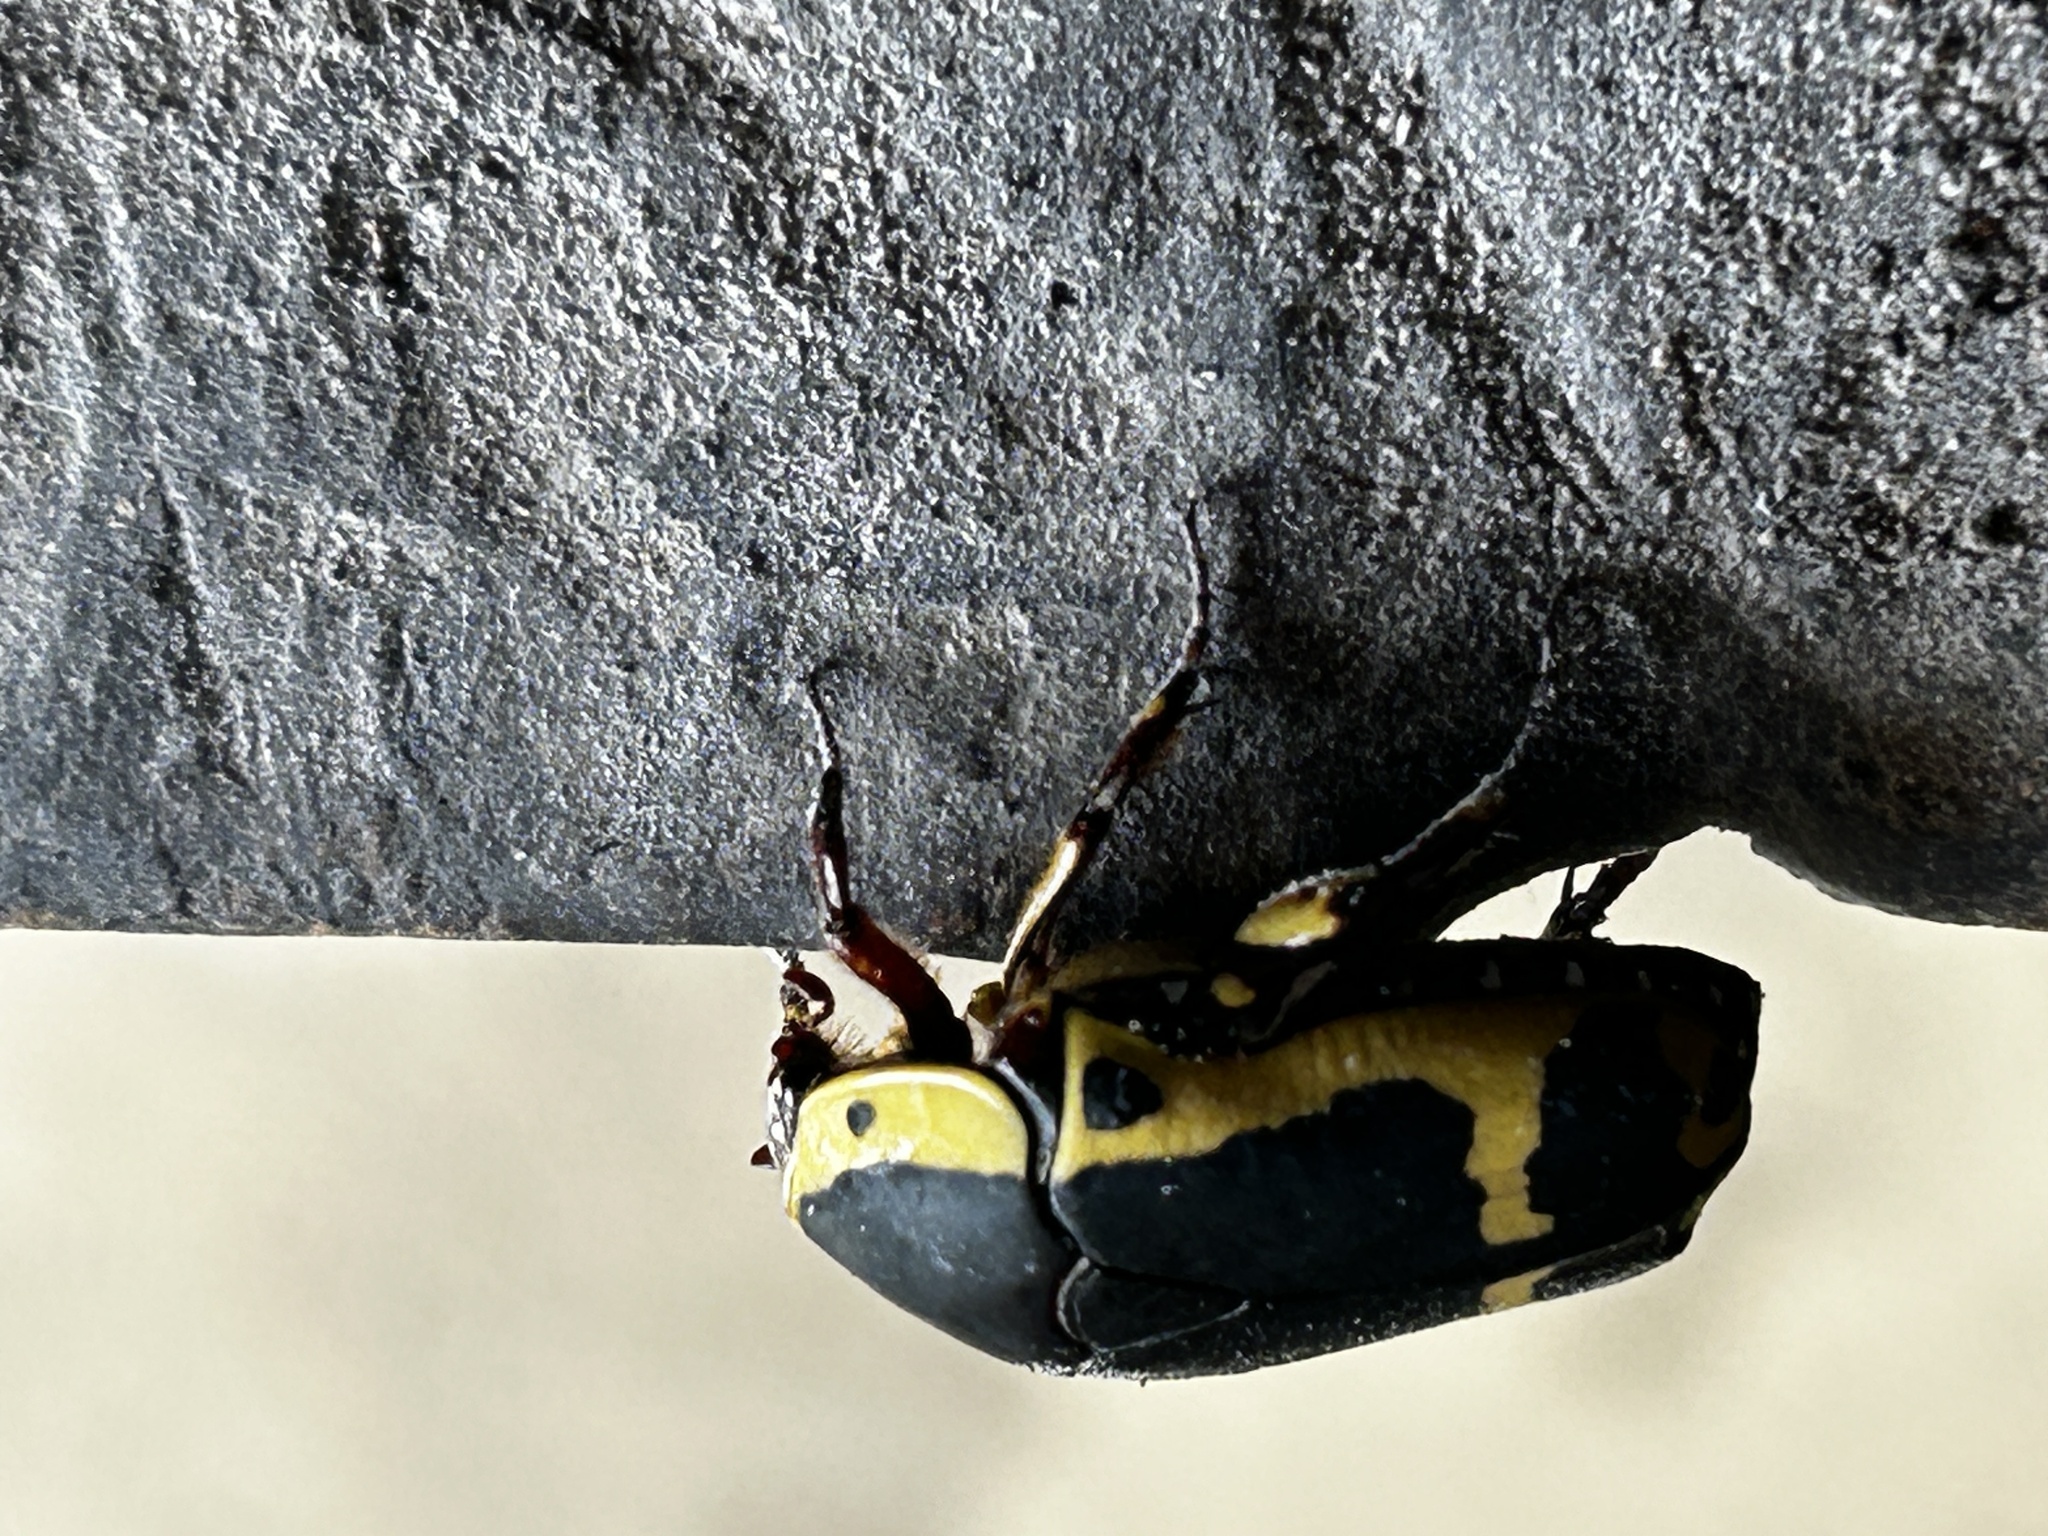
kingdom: Animalia
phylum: Arthropoda
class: Insecta
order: Coleoptera
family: Scarabaeidae
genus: Pachnoda
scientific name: Pachnoda sinuata
